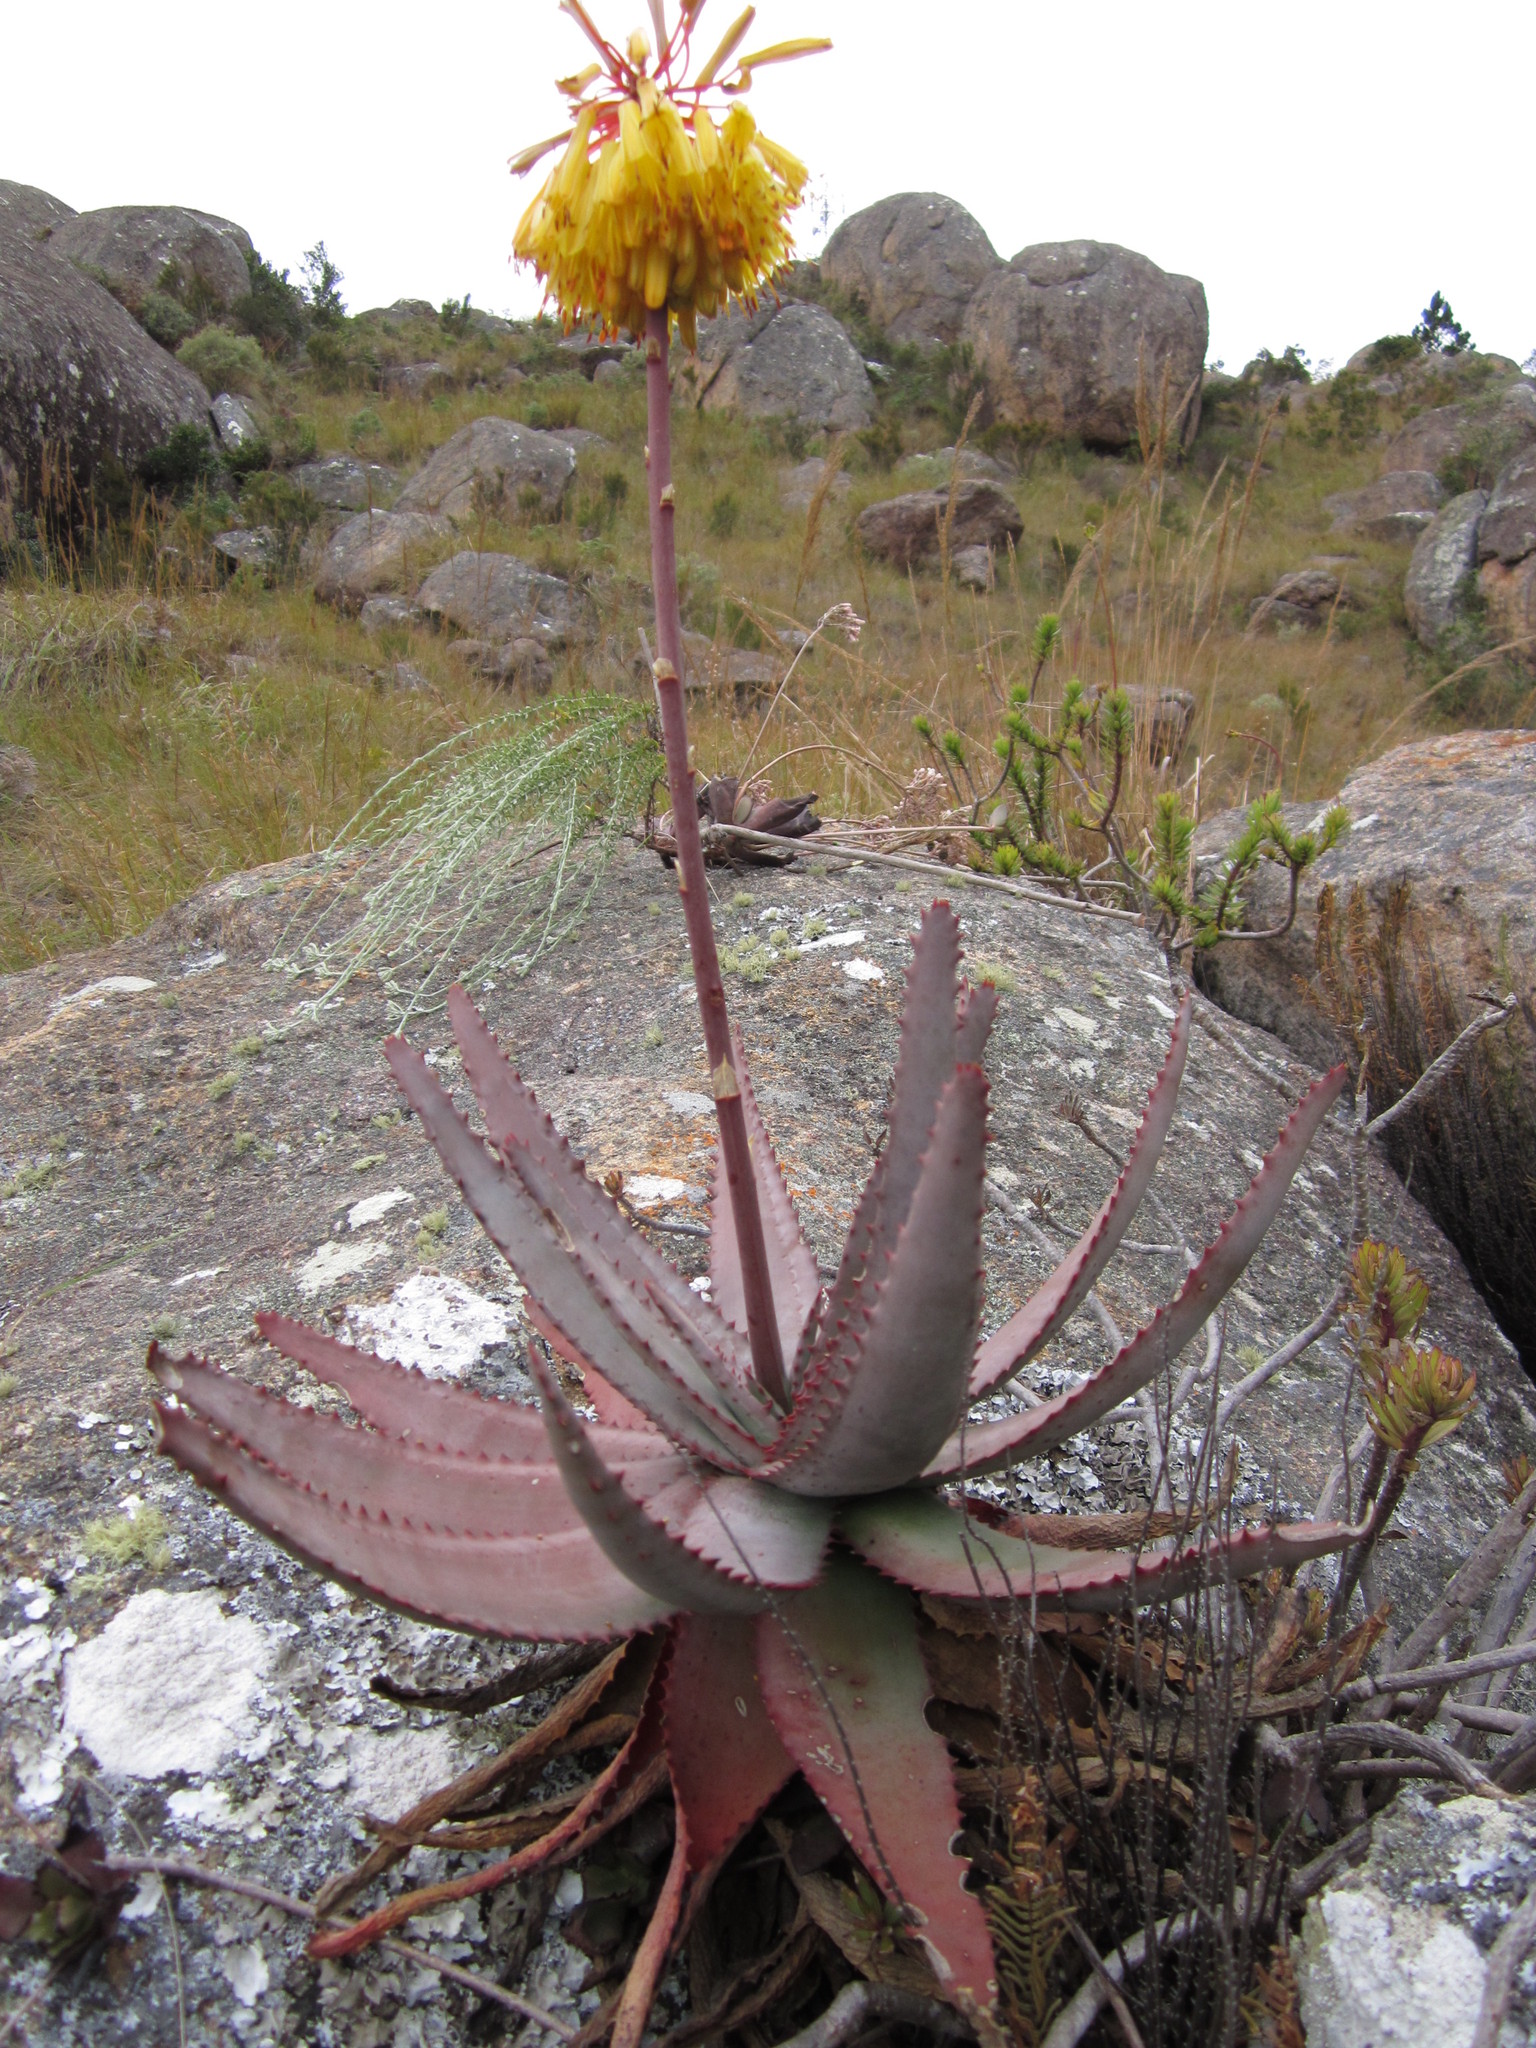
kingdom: Plantae
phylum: Tracheophyta
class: Liliopsida
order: Asparagales
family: Asphodelaceae
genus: Aloe
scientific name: Aloe capitata
